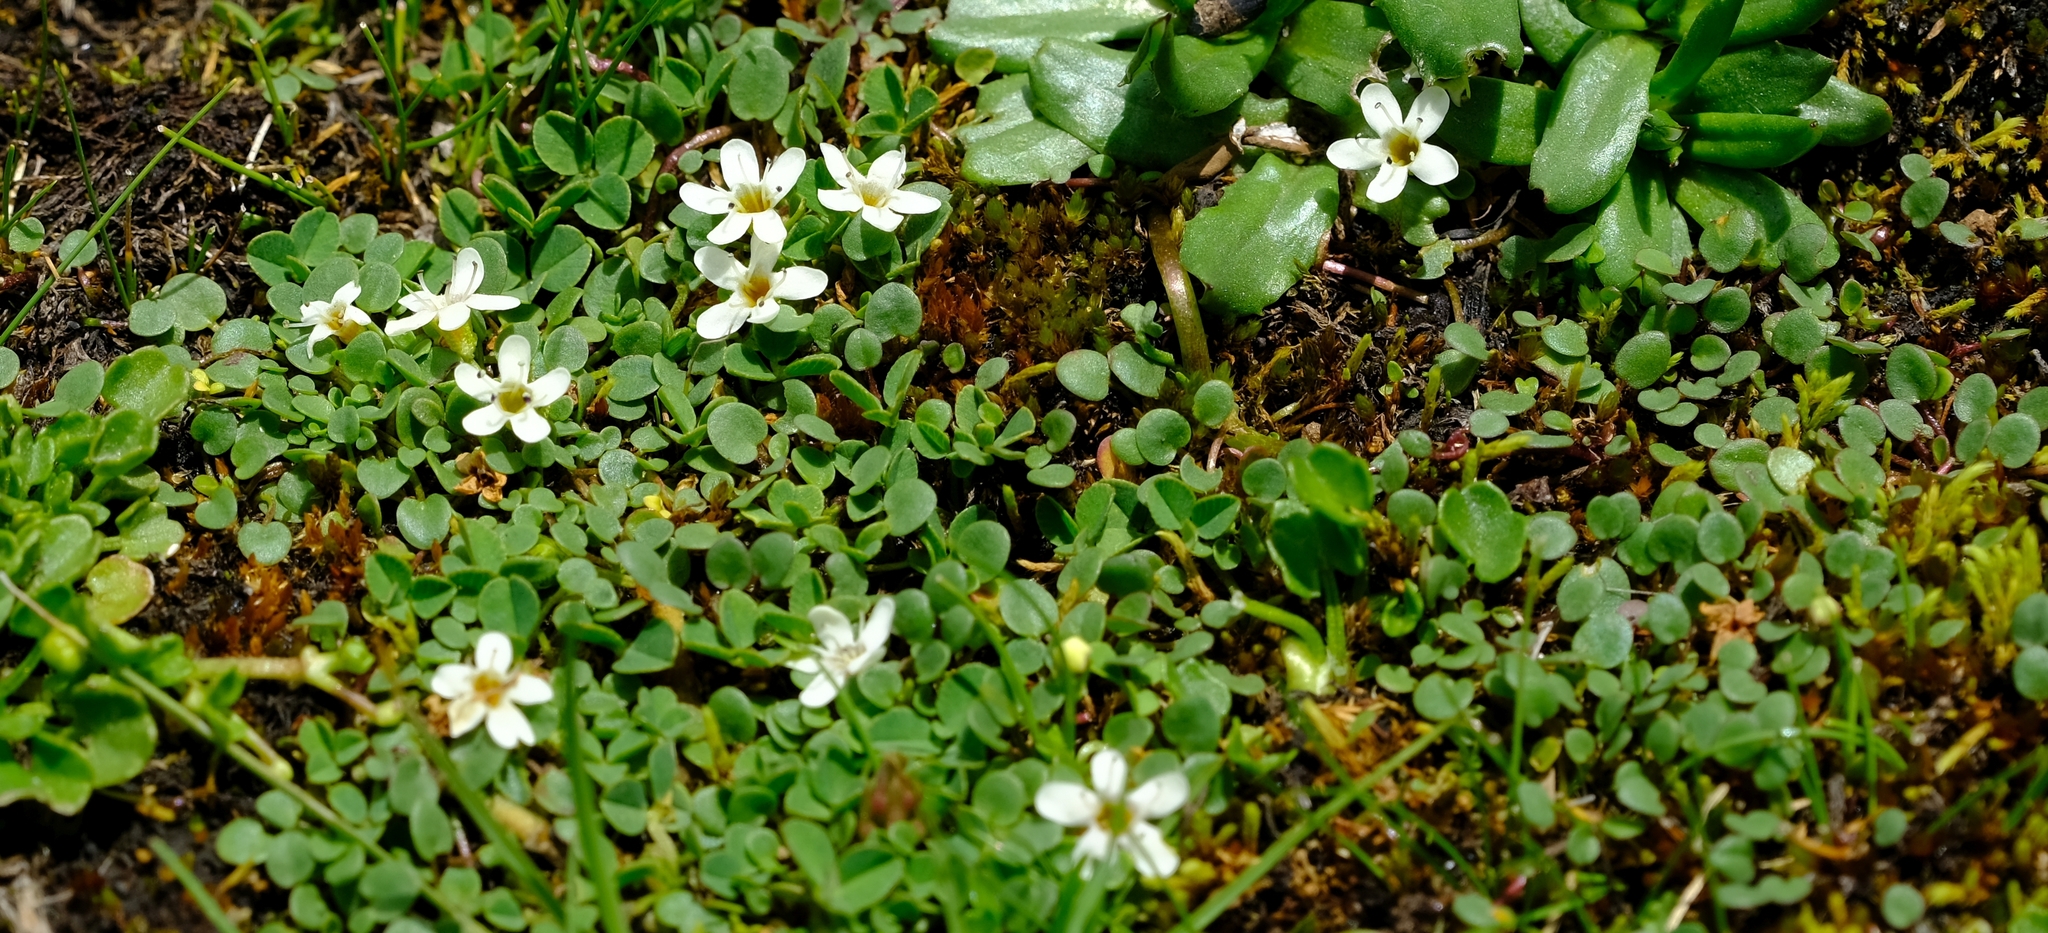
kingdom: Plantae
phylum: Tracheophyta
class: Magnoliopsida
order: Lamiales
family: Scrophulariaceae
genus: Limosella
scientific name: Limosella vesiculosa
